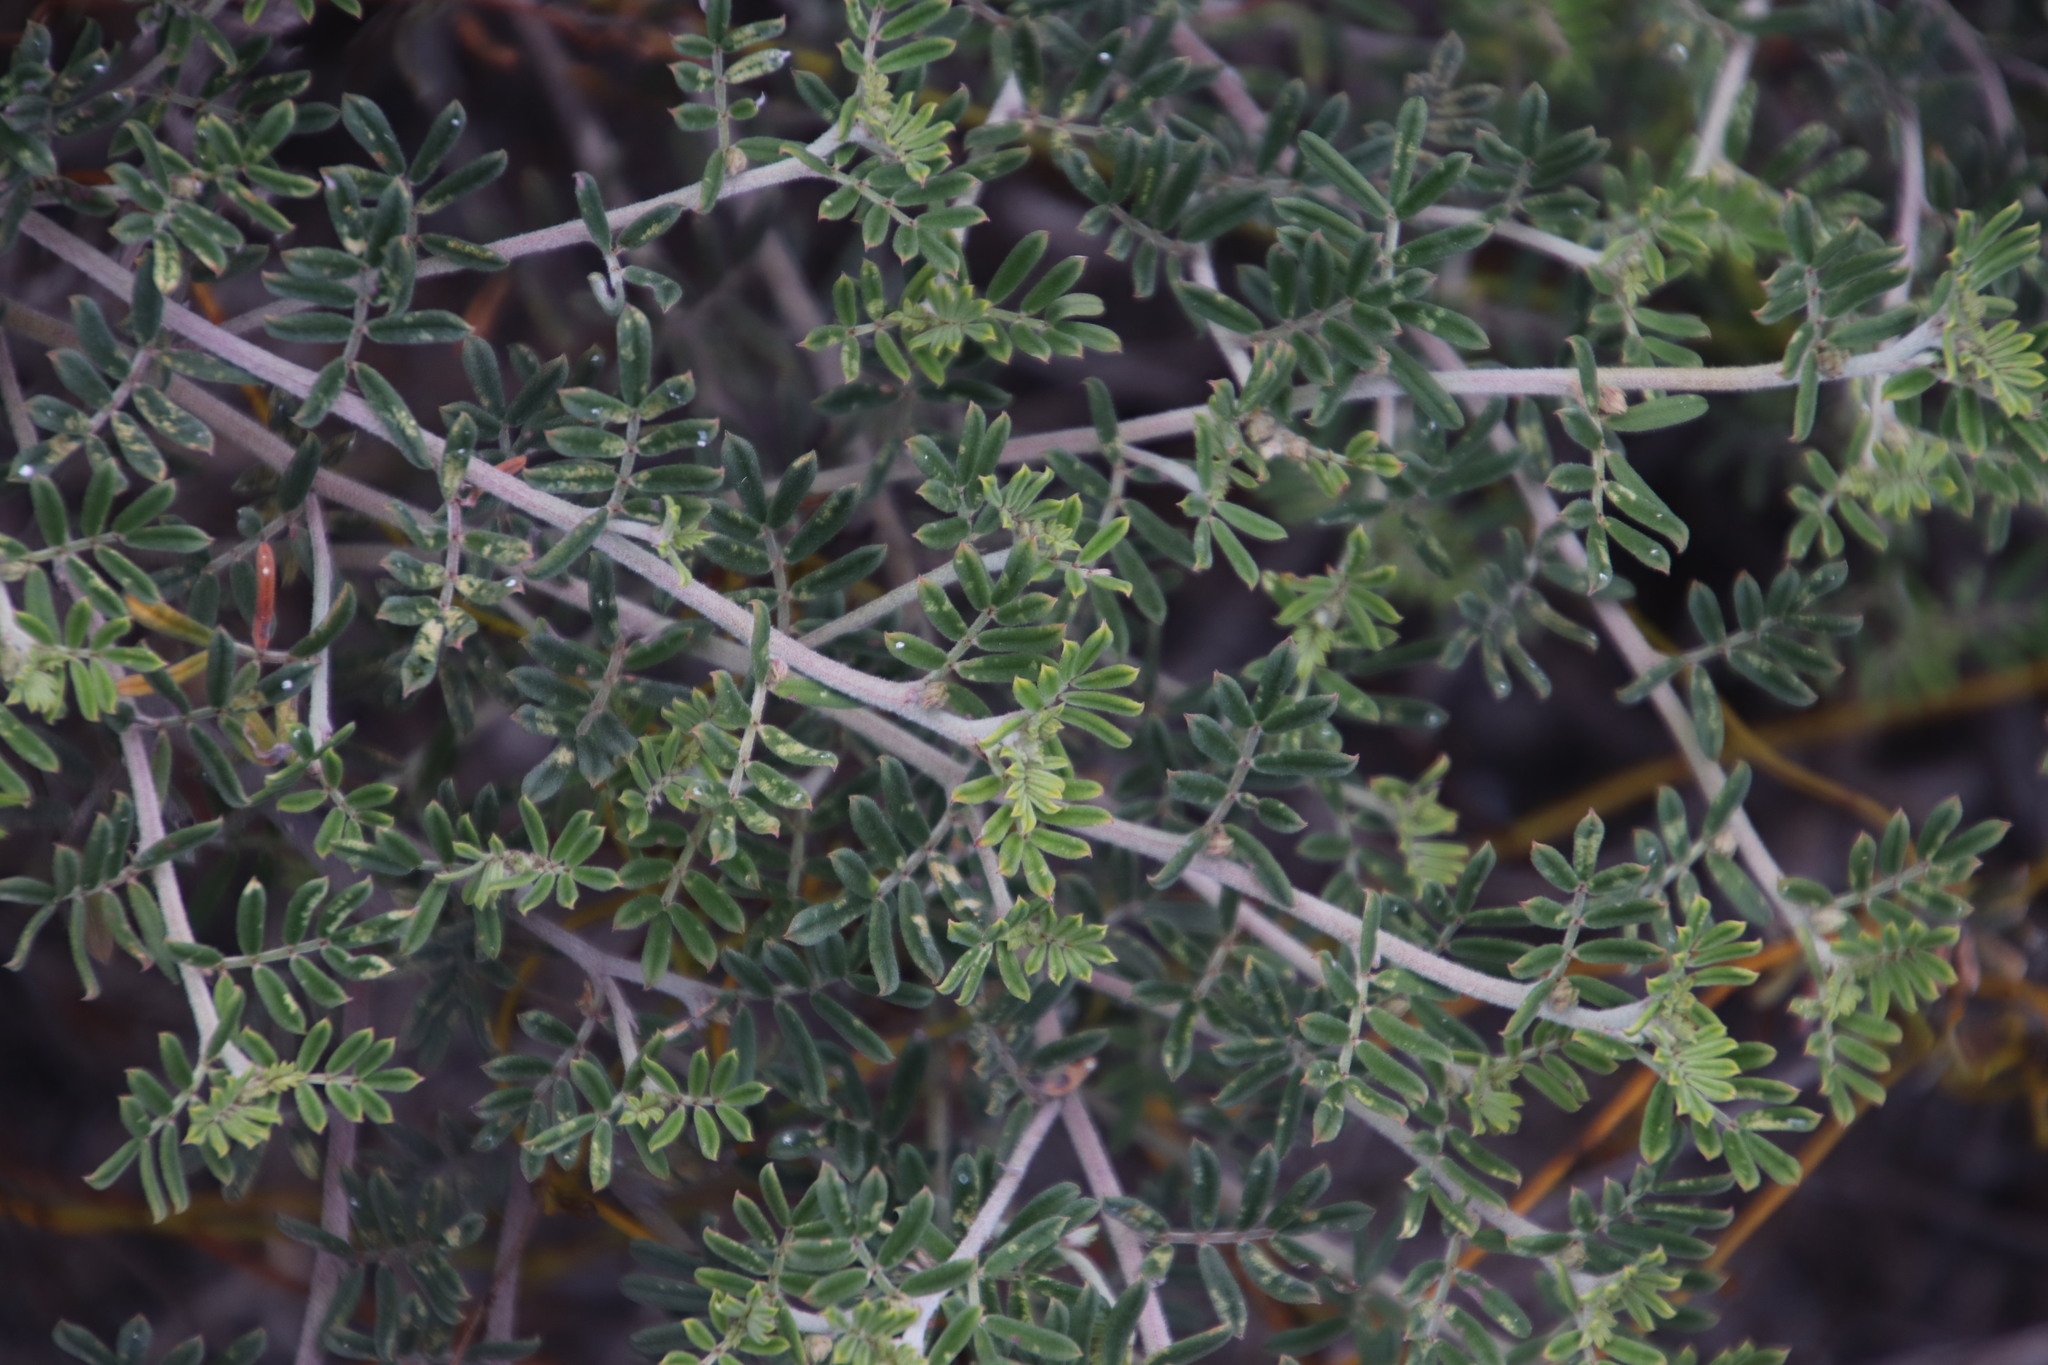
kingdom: Plantae
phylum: Tracheophyta
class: Magnoliopsida
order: Fabales
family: Fabaceae
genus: Microcharis
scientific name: Microcharis praetermissa
